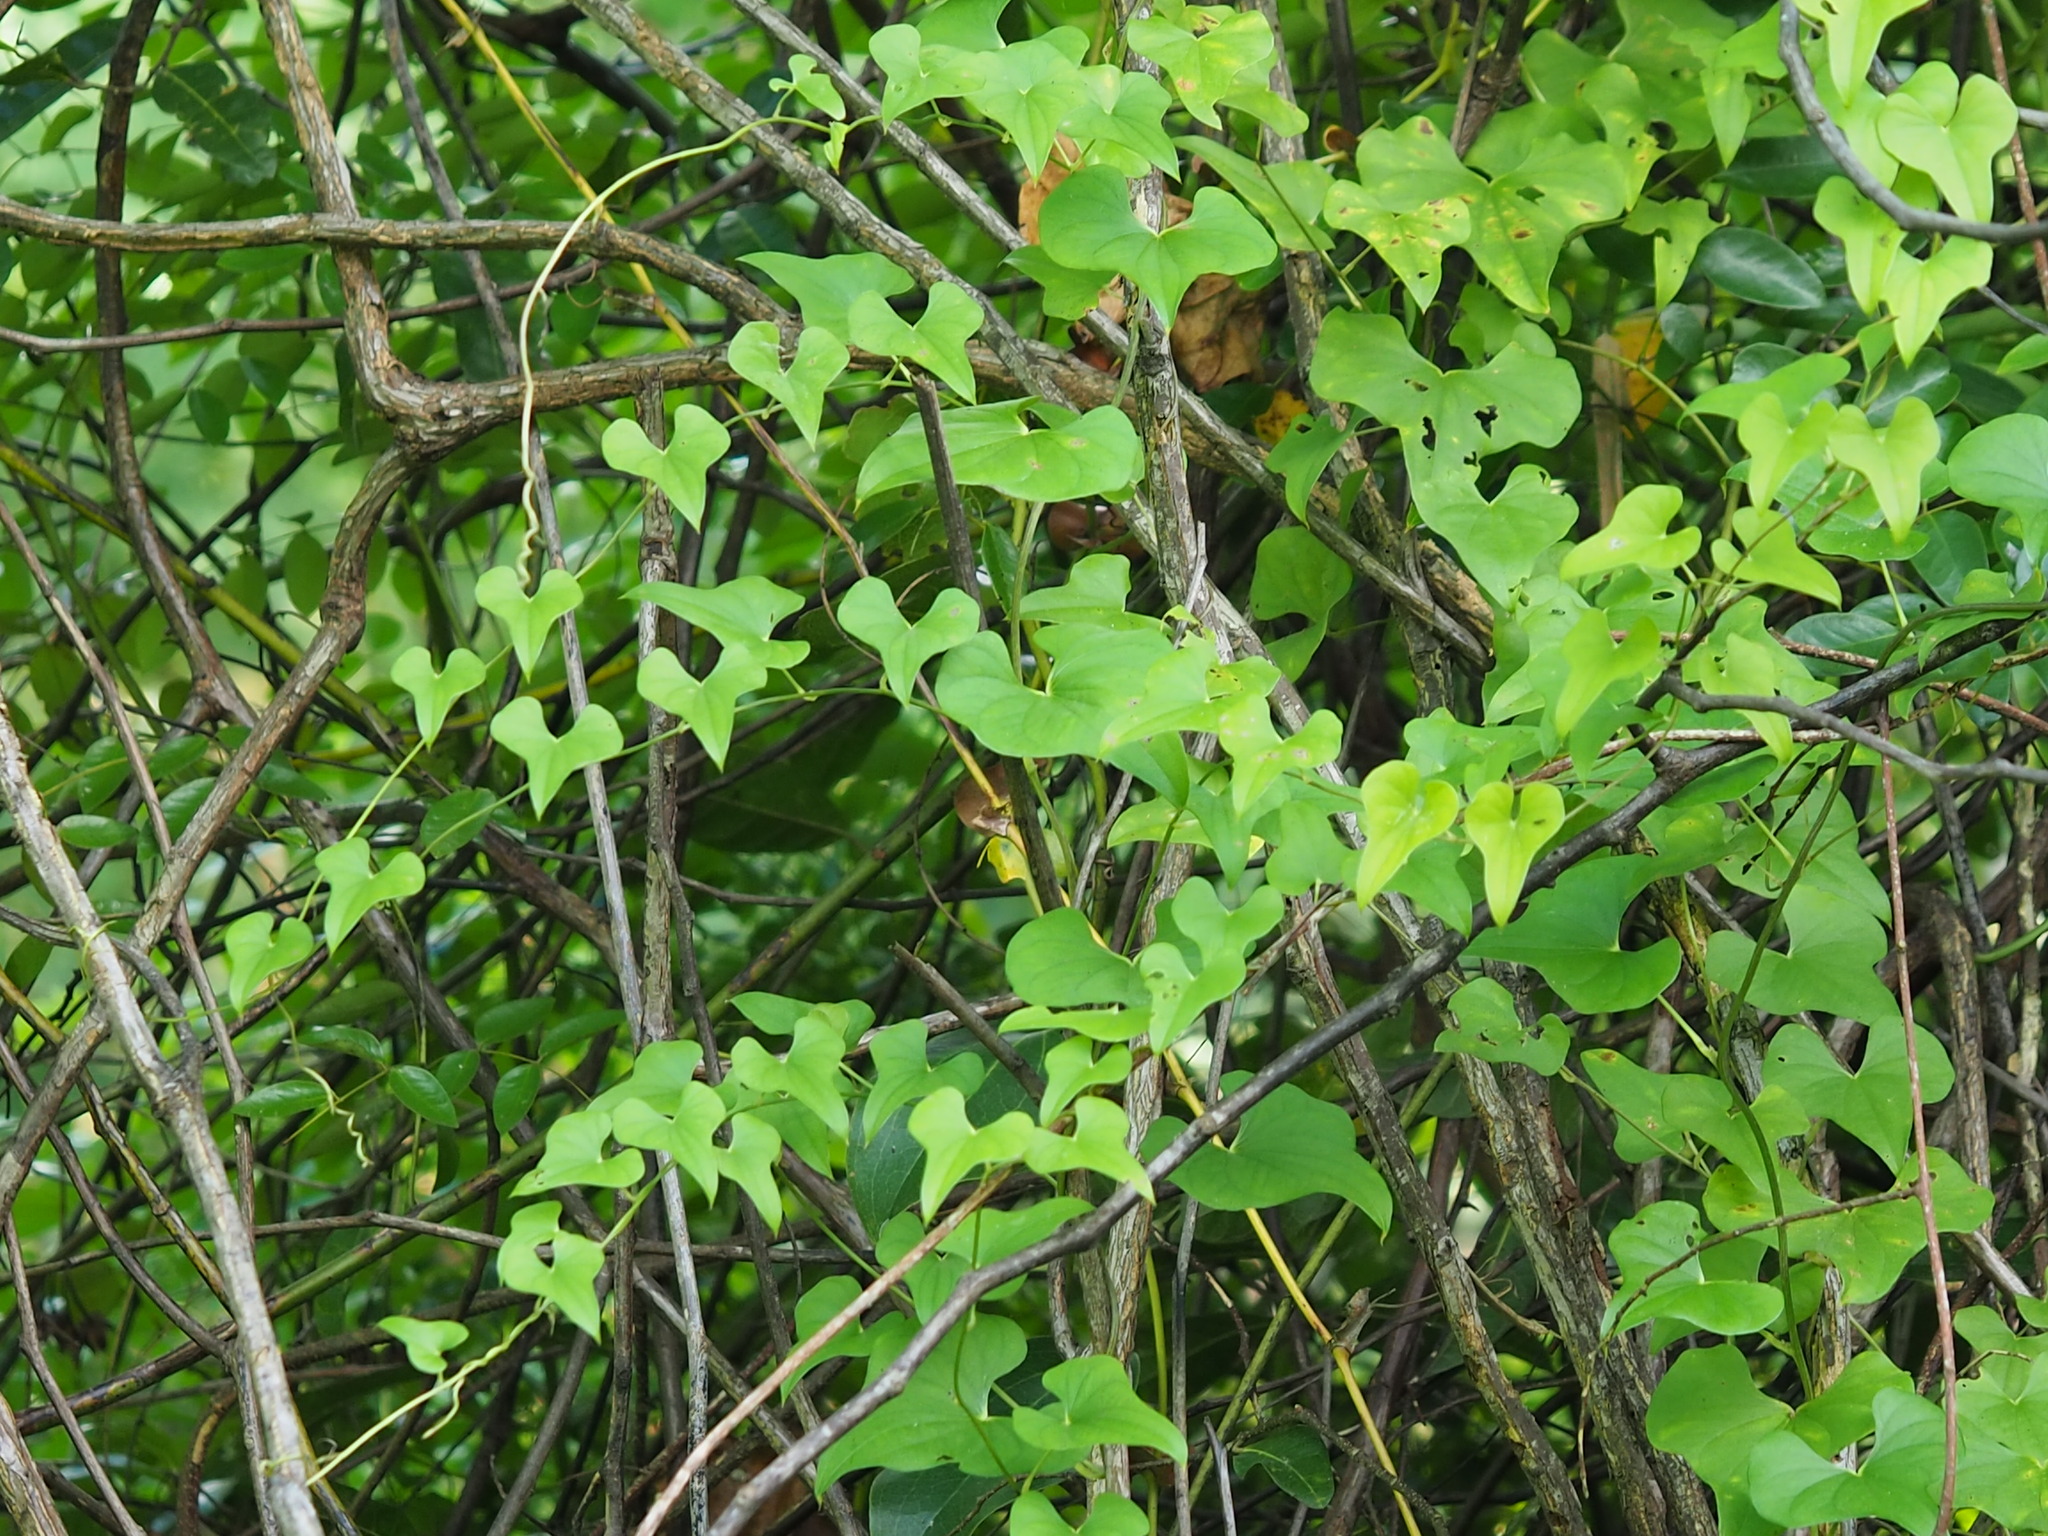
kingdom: Plantae
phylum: Tracheophyta
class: Liliopsida
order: Dioscoreales
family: Dioscoreaceae
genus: Dioscorea
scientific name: Dioscorea polystachya
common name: Chinese yam
